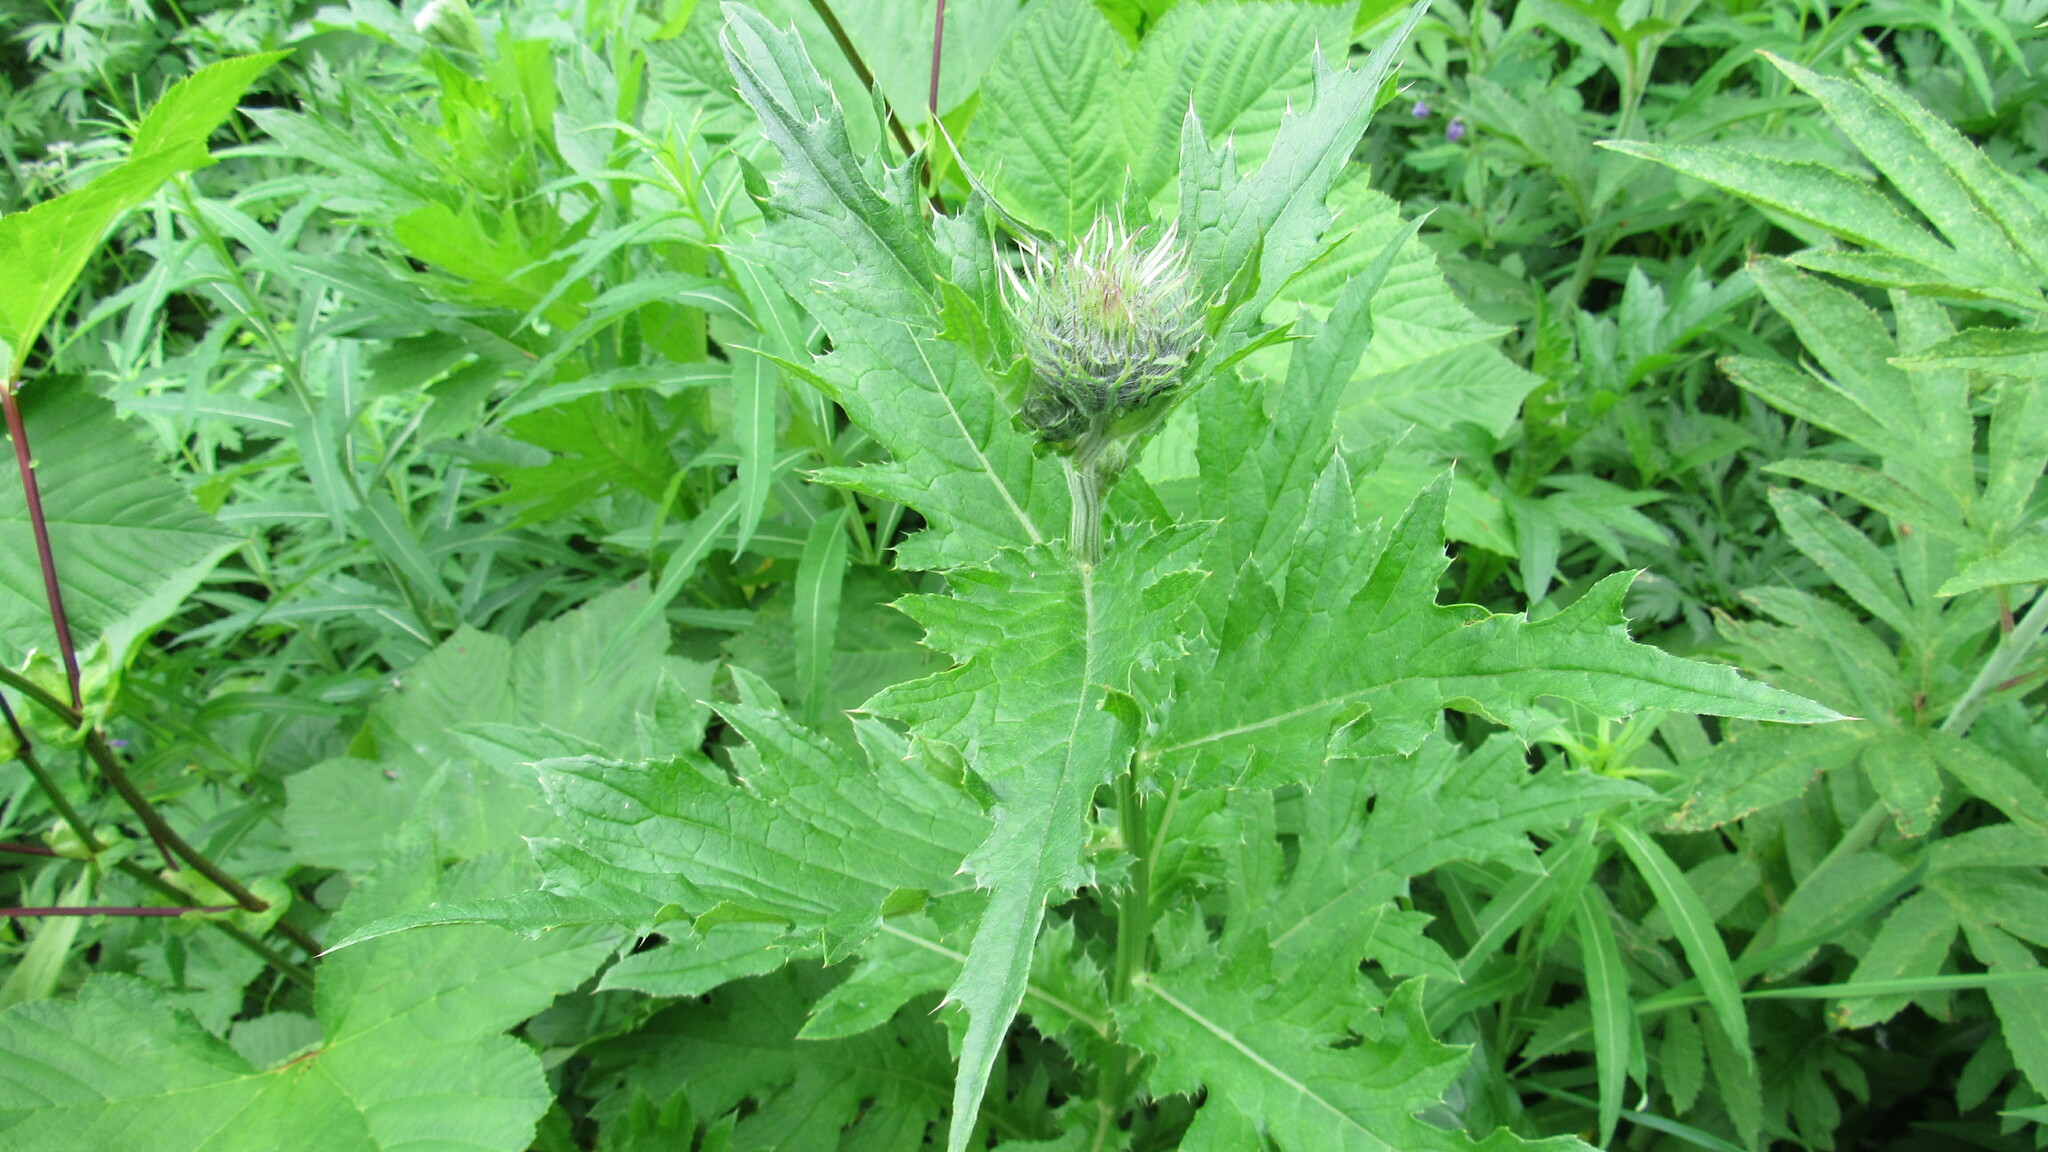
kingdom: Plantae
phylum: Tracheophyta
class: Magnoliopsida
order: Asterales
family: Asteraceae
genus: Cirsium
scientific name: Cirsium kamtschaticum
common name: Kamchatka thistle
